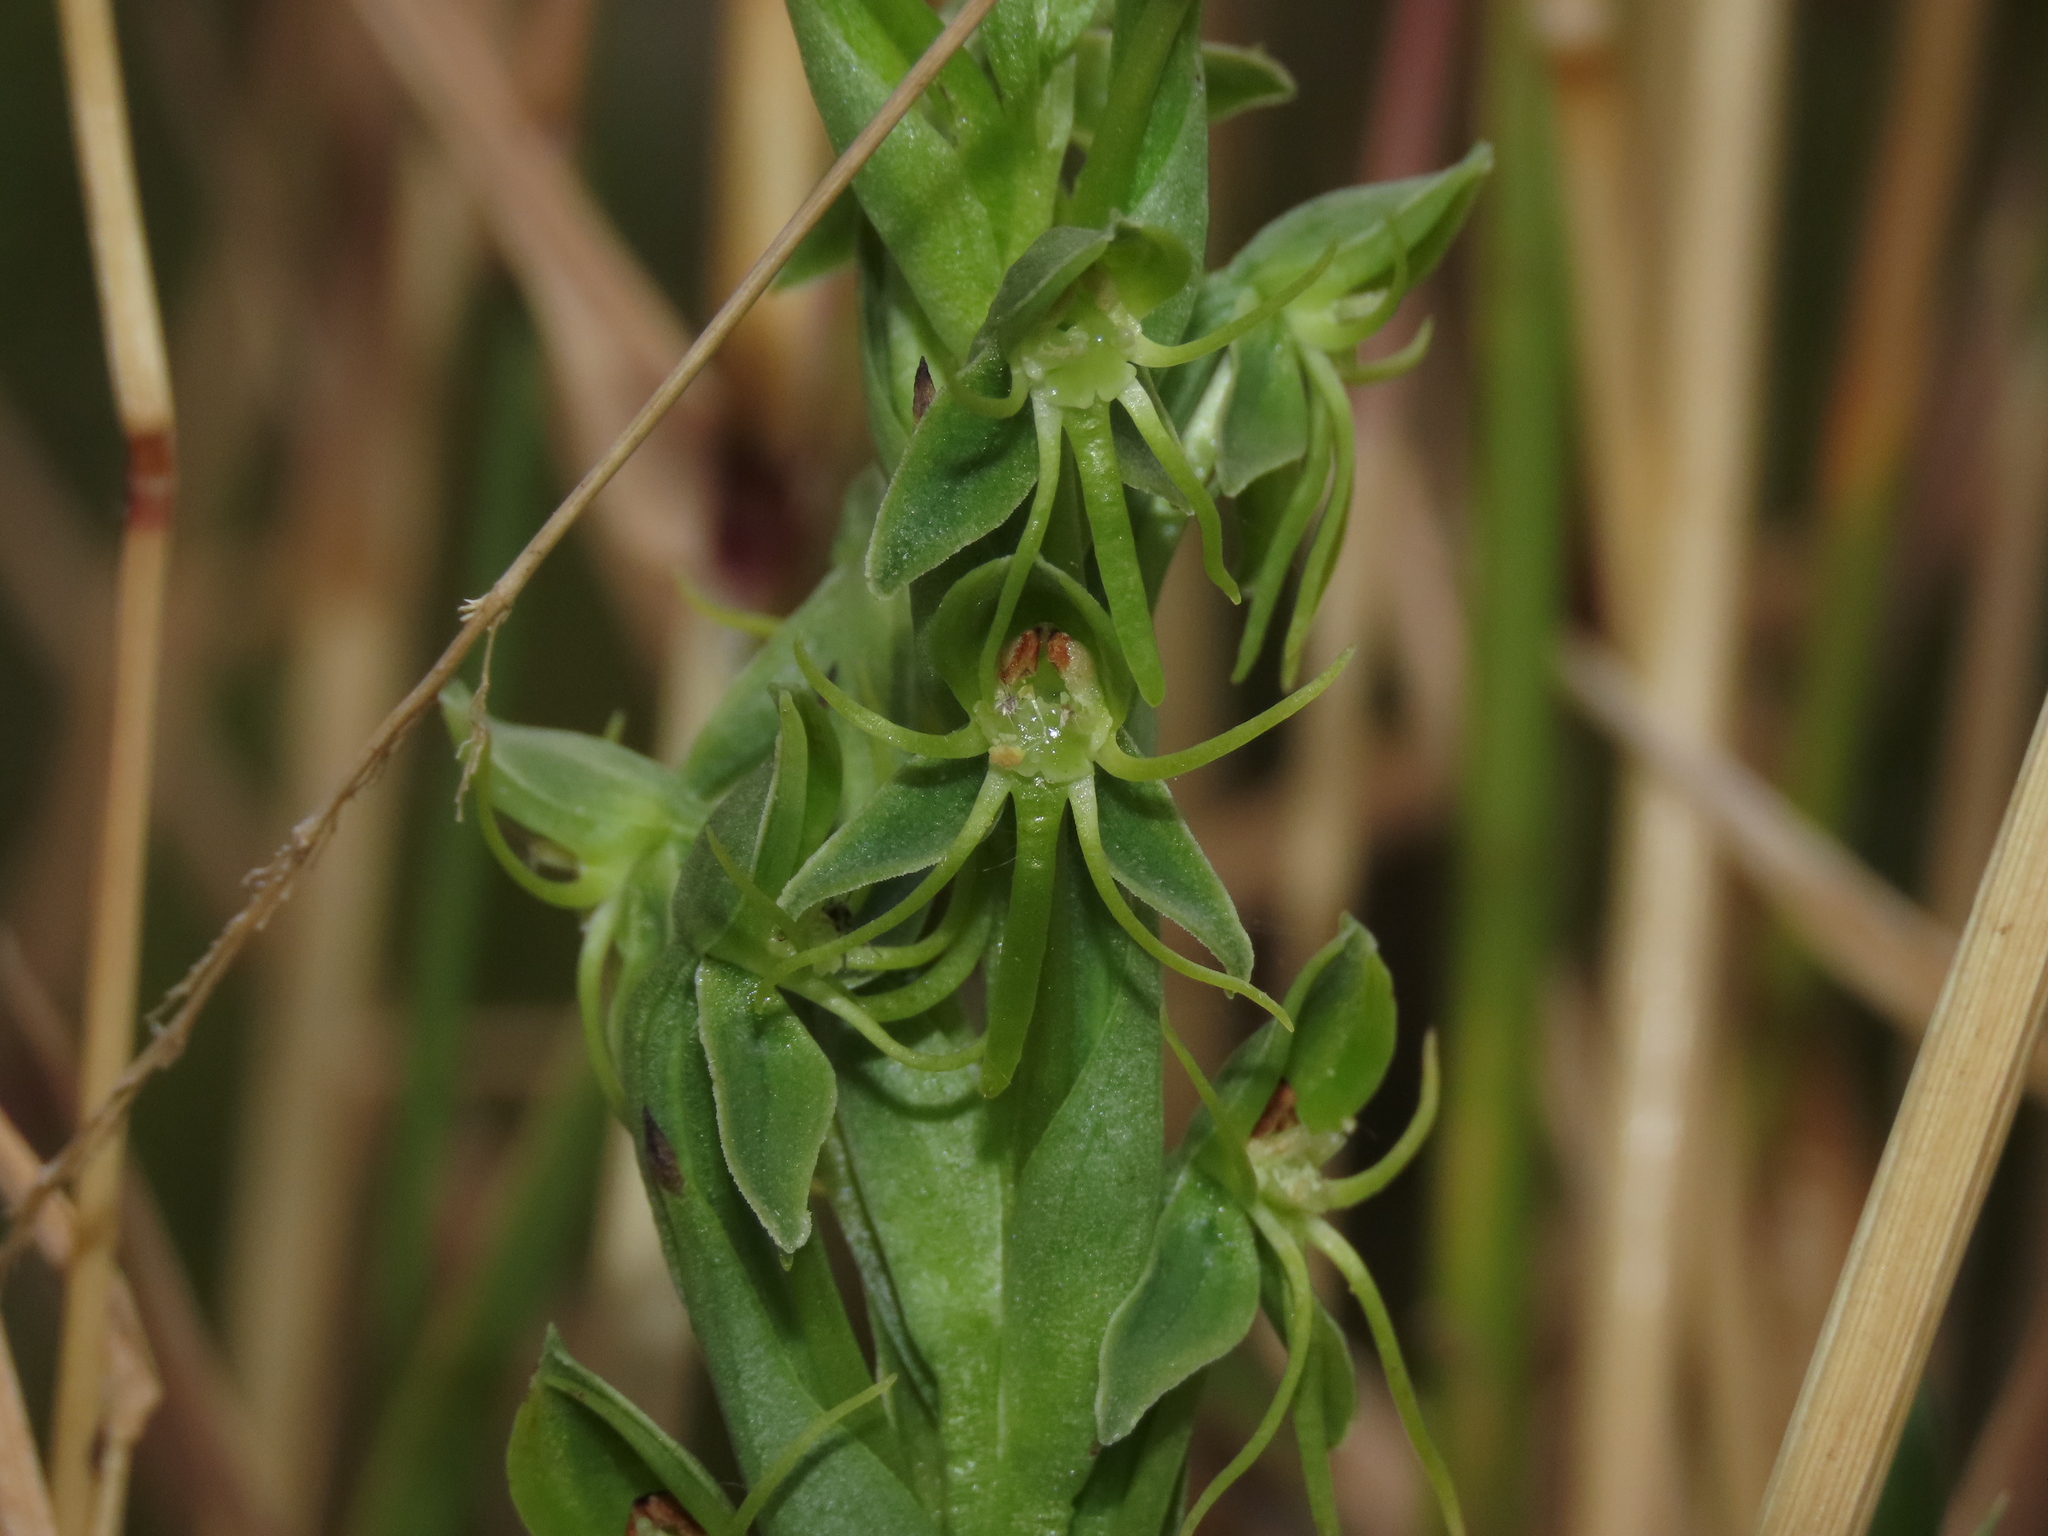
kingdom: Plantae
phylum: Tracheophyta
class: Liliopsida
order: Asparagales
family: Orchidaceae
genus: Habenaria
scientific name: Habenaria pumila
